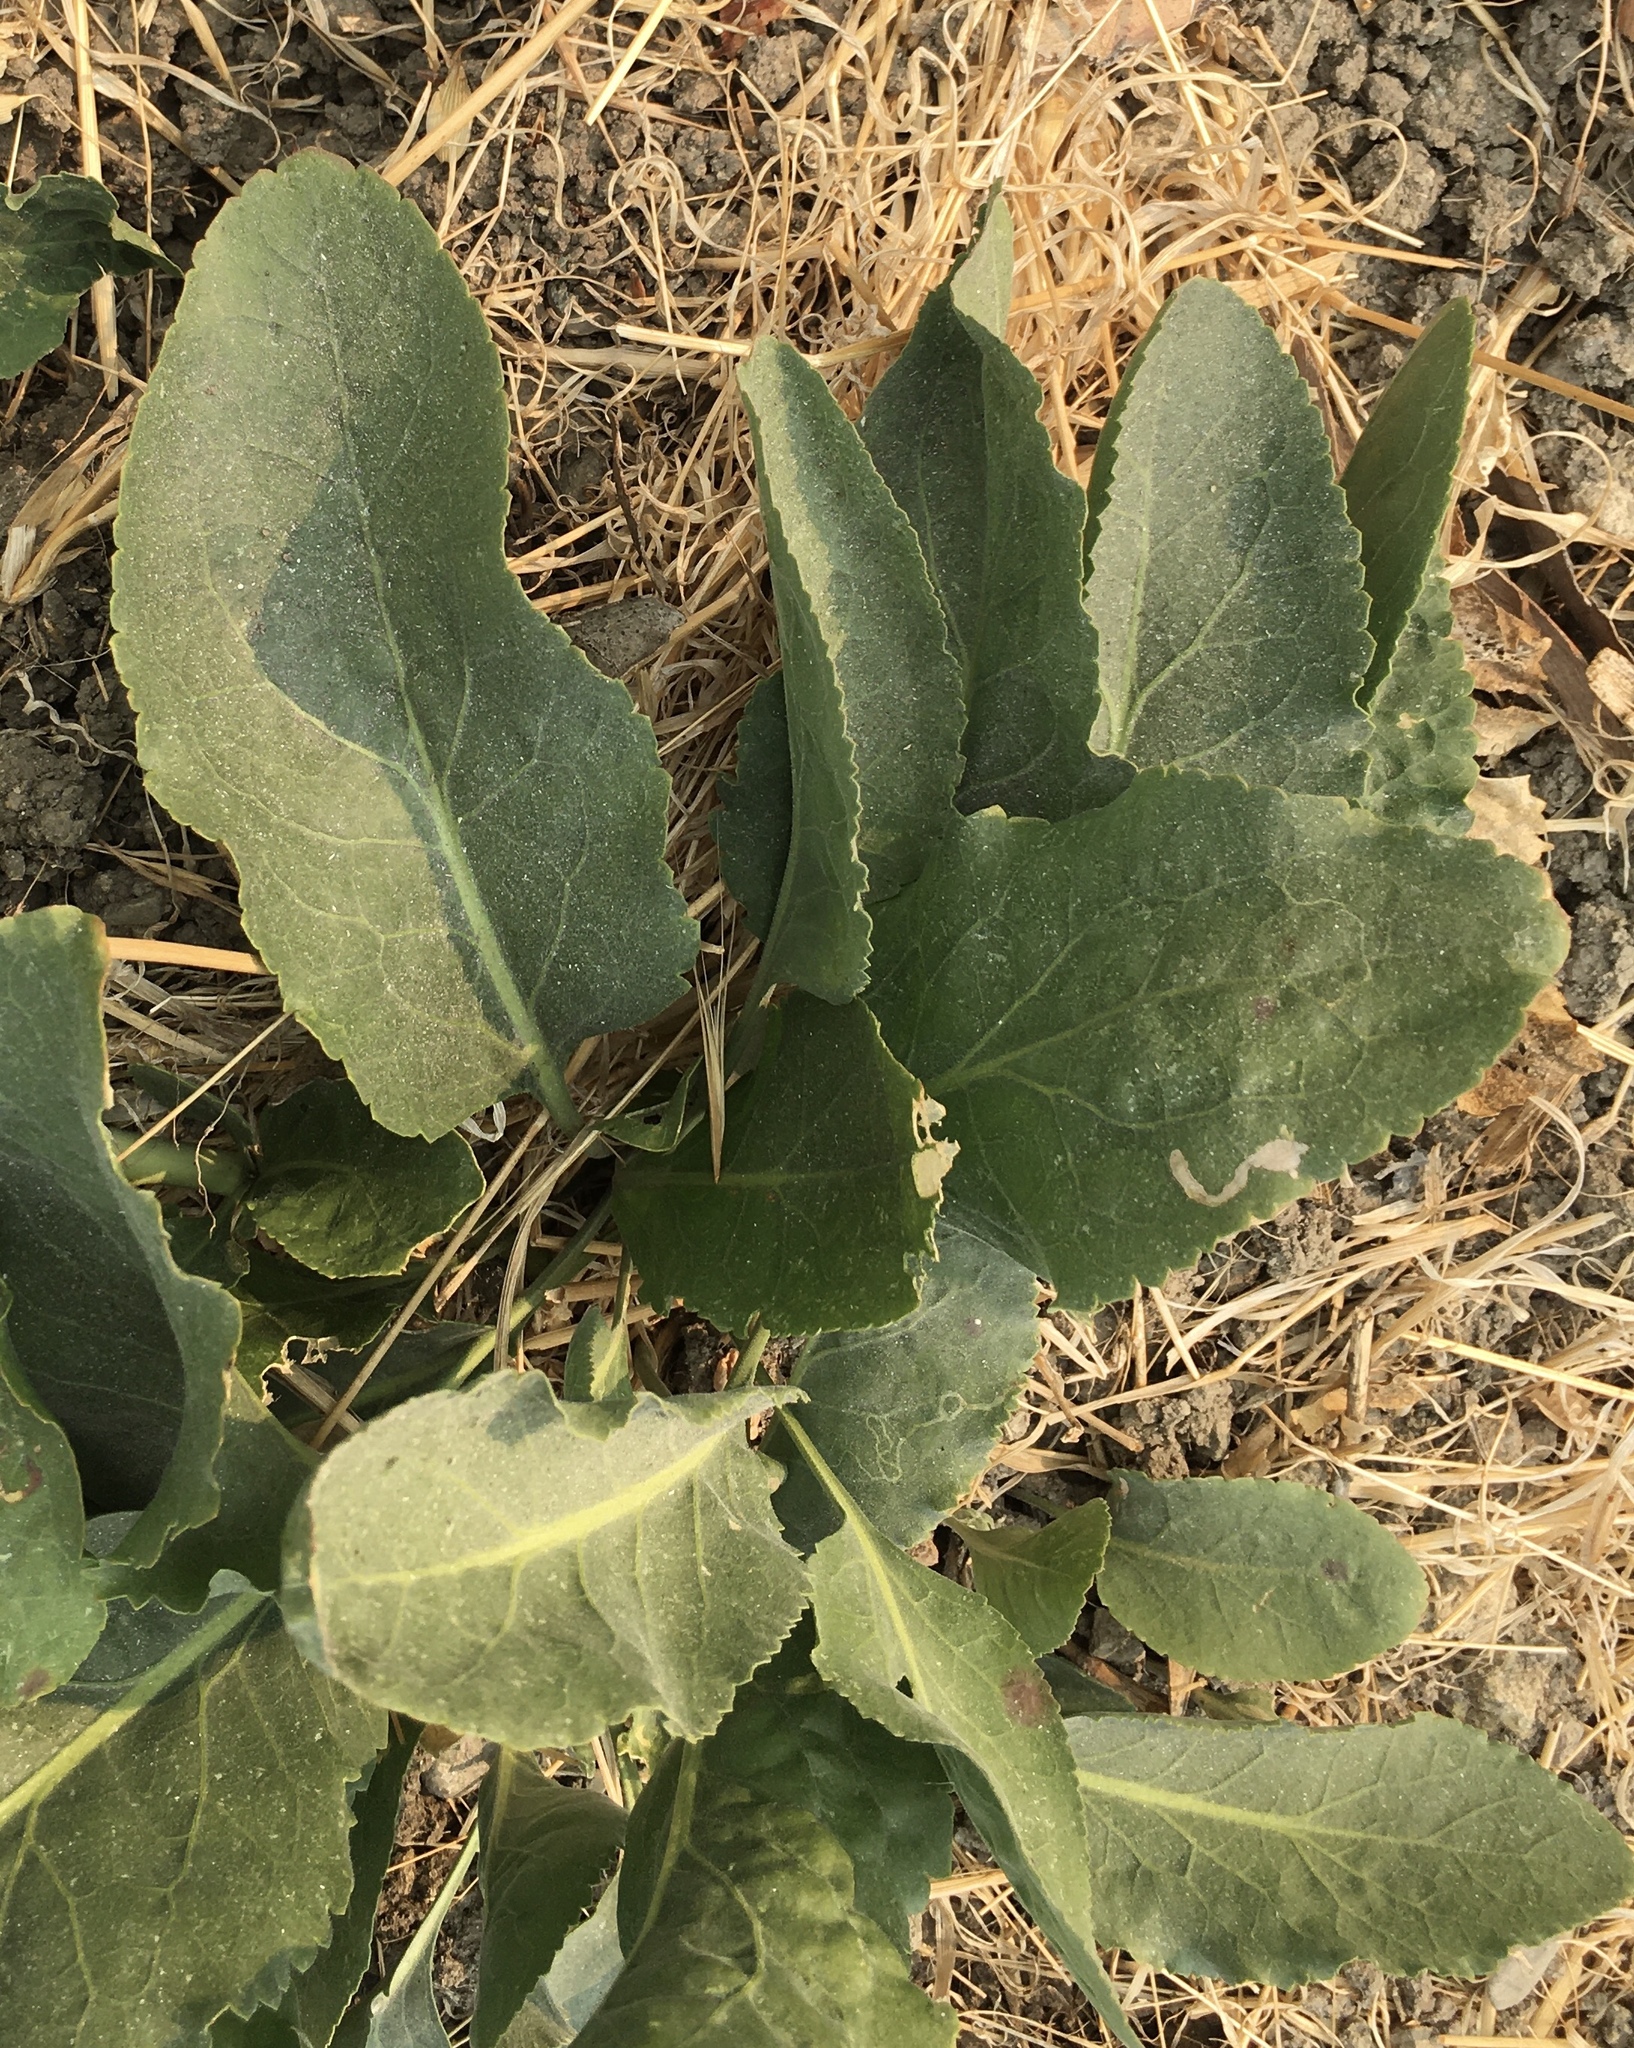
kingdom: Plantae
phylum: Tracheophyta
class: Magnoliopsida
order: Brassicales
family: Brassicaceae
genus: Lepidium
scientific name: Lepidium latifolium
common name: Dittander
